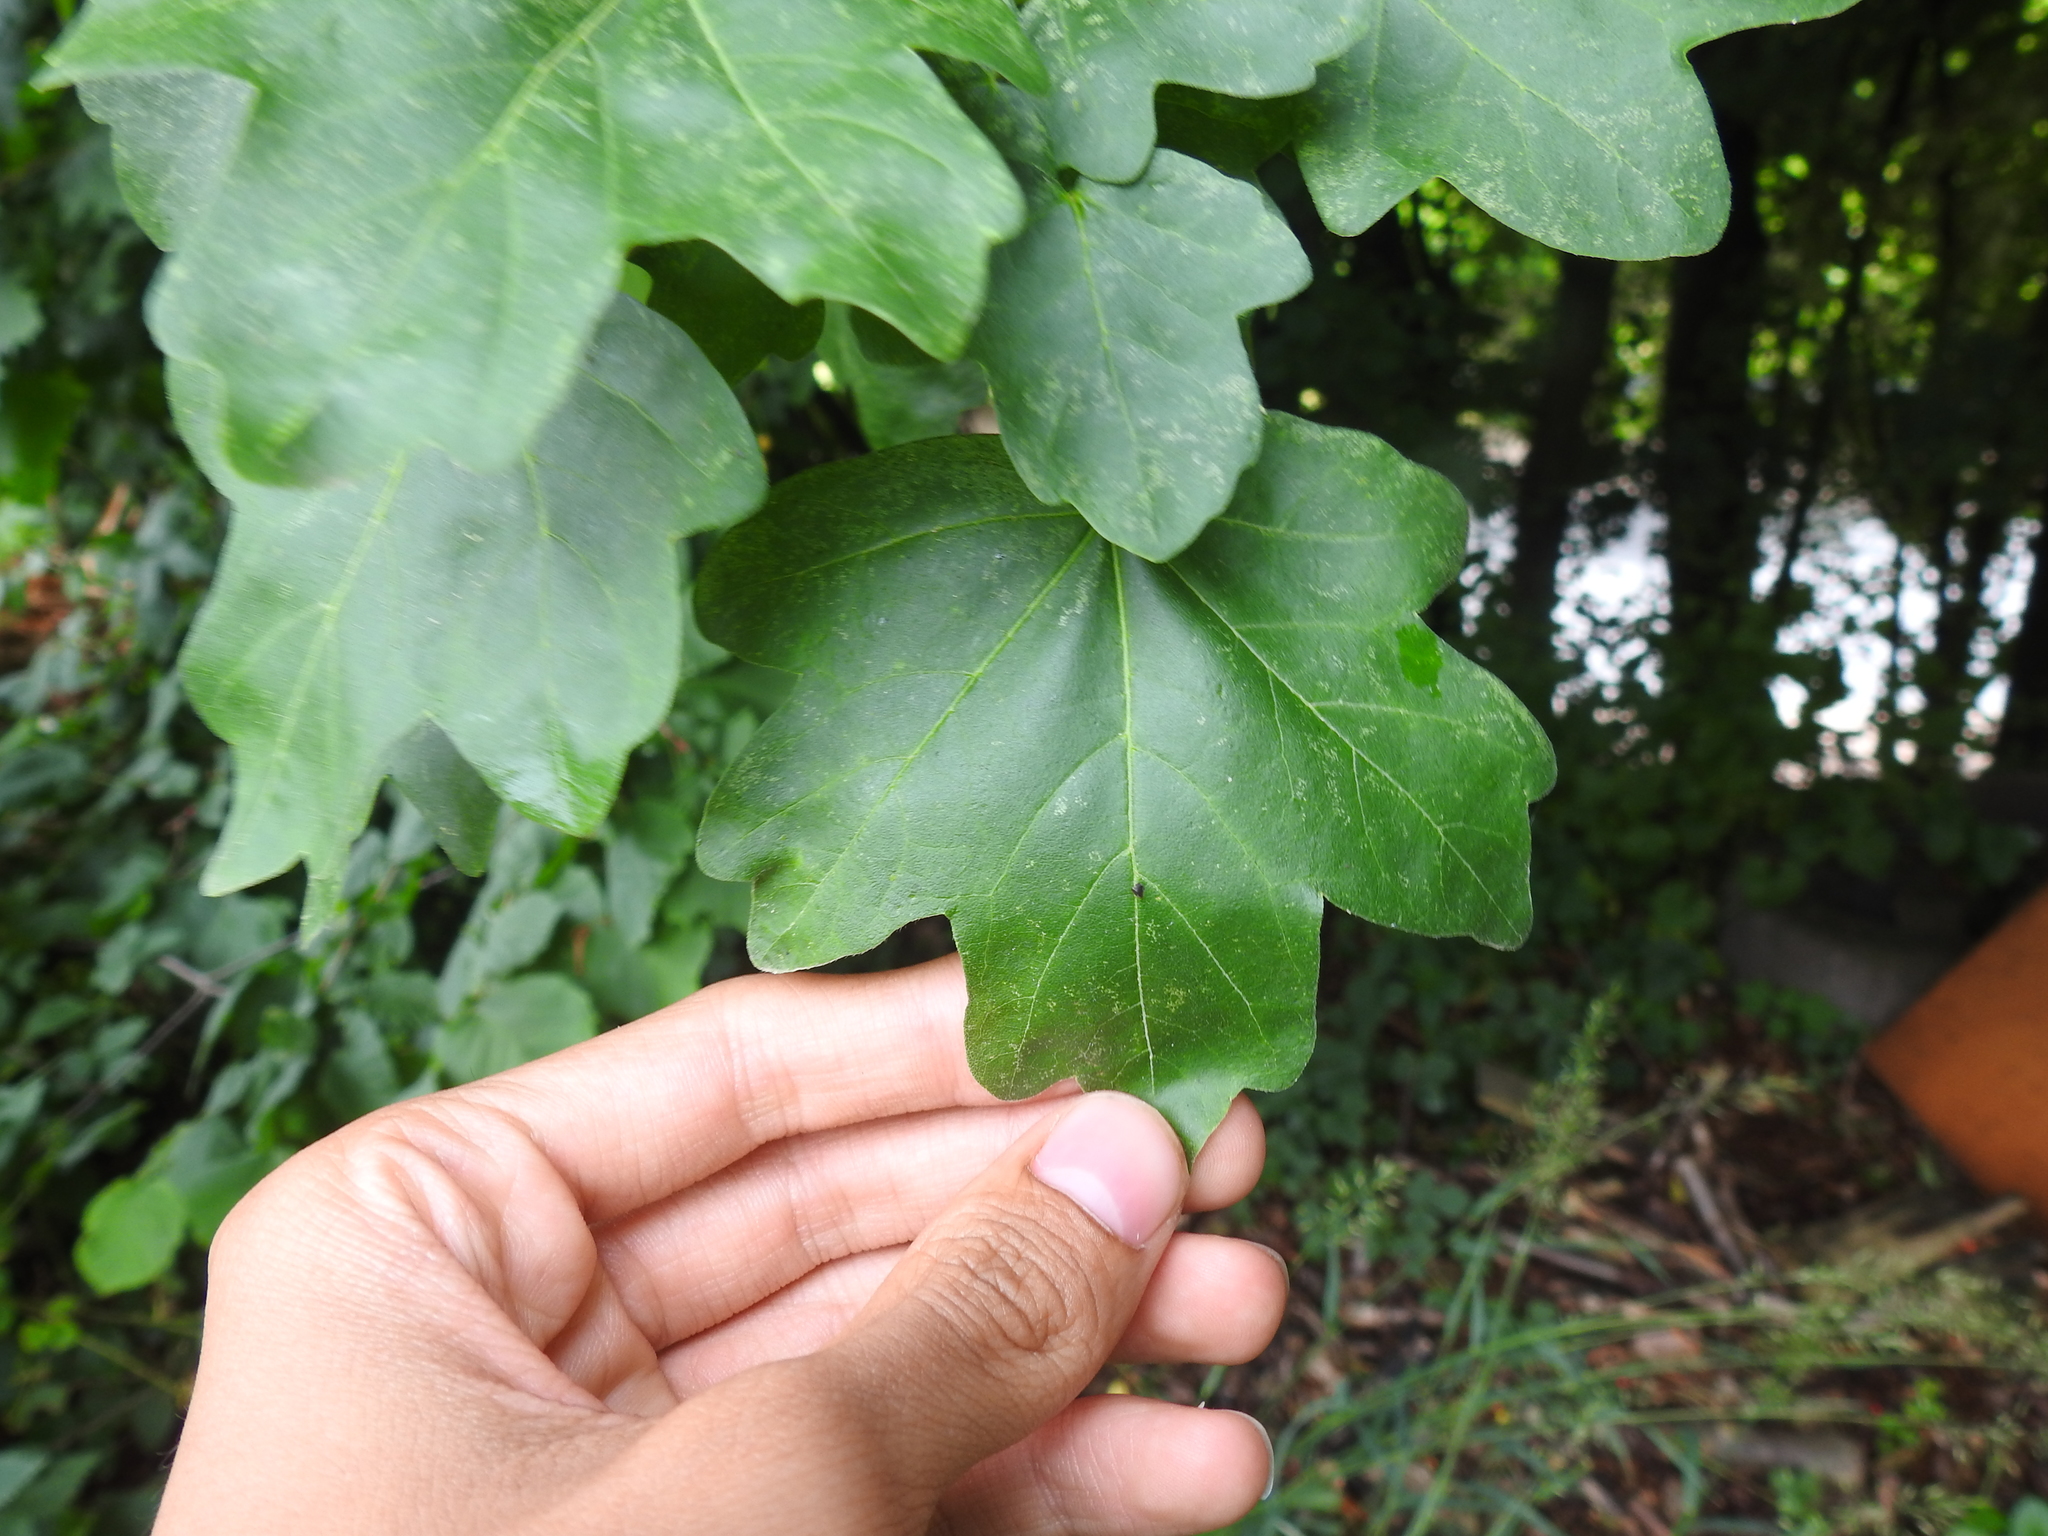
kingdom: Plantae
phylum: Tracheophyta
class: Magnoliopsida
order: Sapindales
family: Sapindaceae
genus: Acer
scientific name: Acer campestre
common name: Field maple
